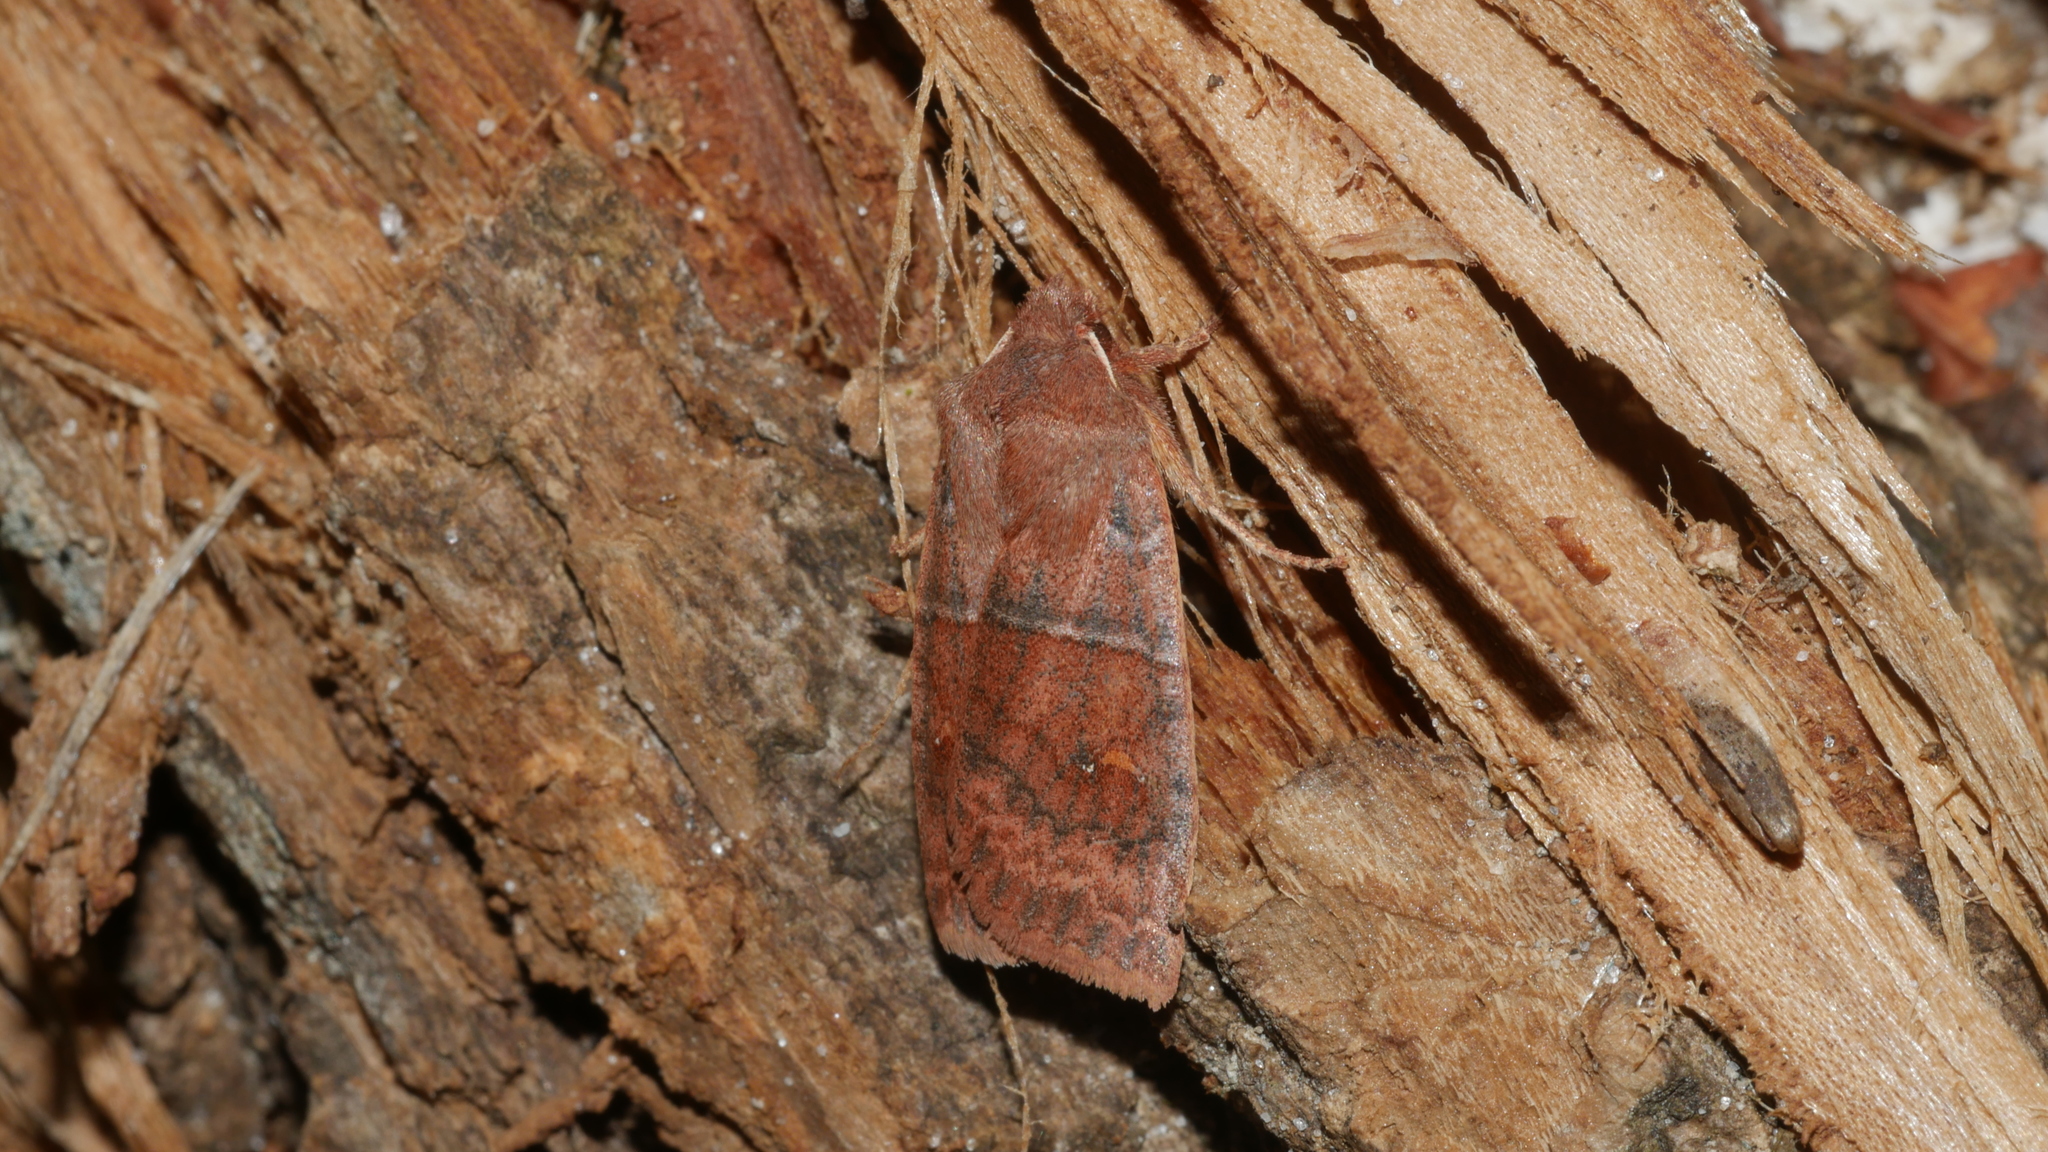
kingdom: Animalia
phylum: Arthropoda
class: Insecta
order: Lepidoptera
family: Noctuidae
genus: Eupsilia
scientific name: Eupsilia vinulenta
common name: Straight-toothed sallow
